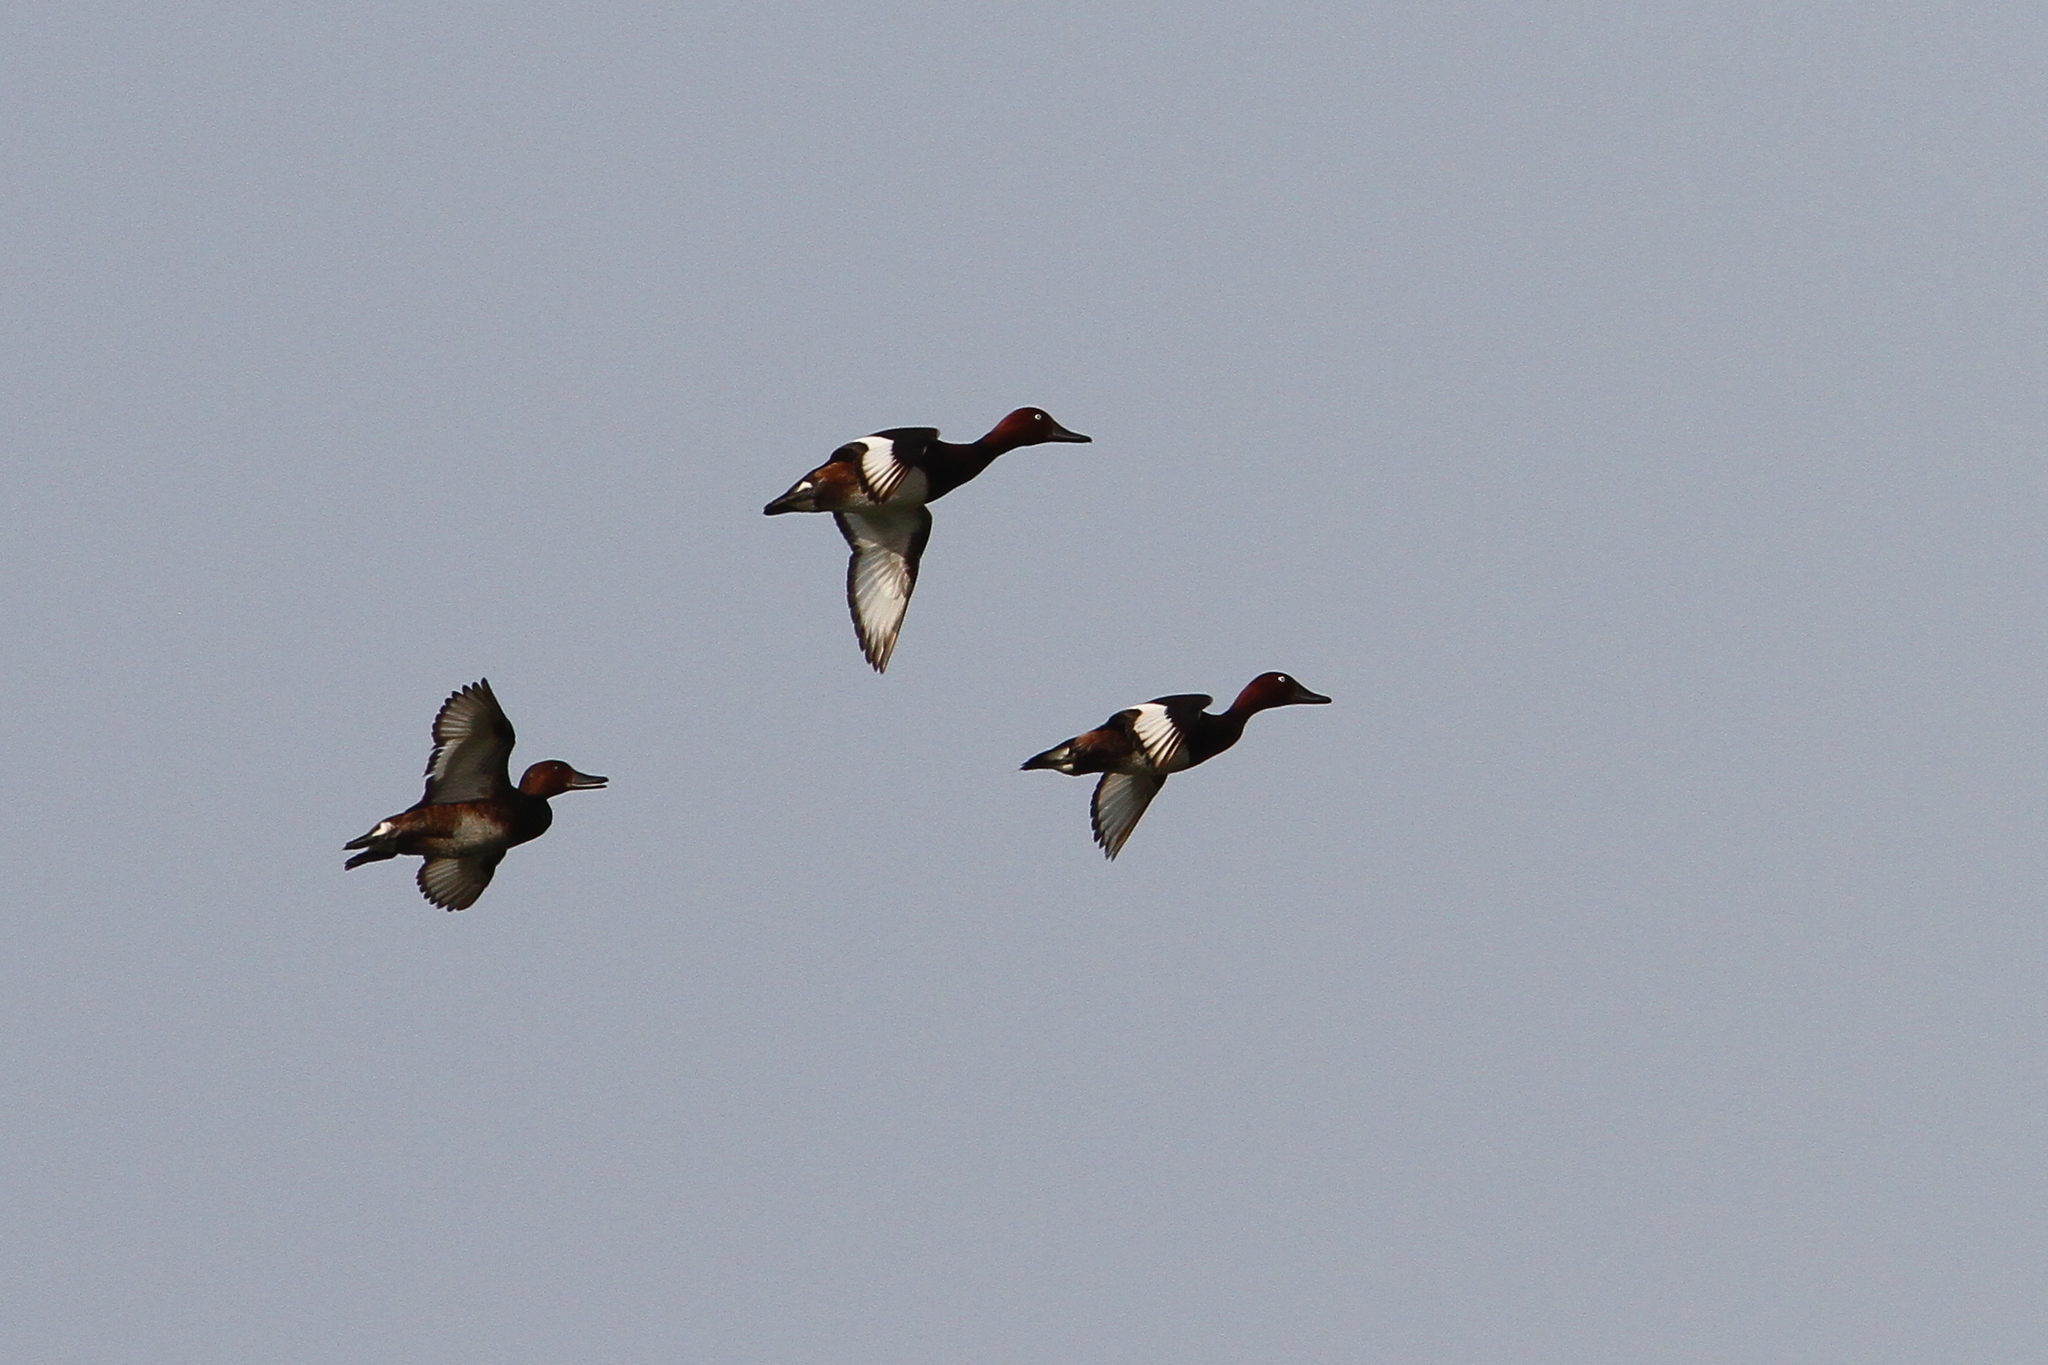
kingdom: Animalia
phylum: Chordata
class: Aves
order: Anseriformes
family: Anatidae
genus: Aythya
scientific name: Aythya nyroca
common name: Ferruginous duck
